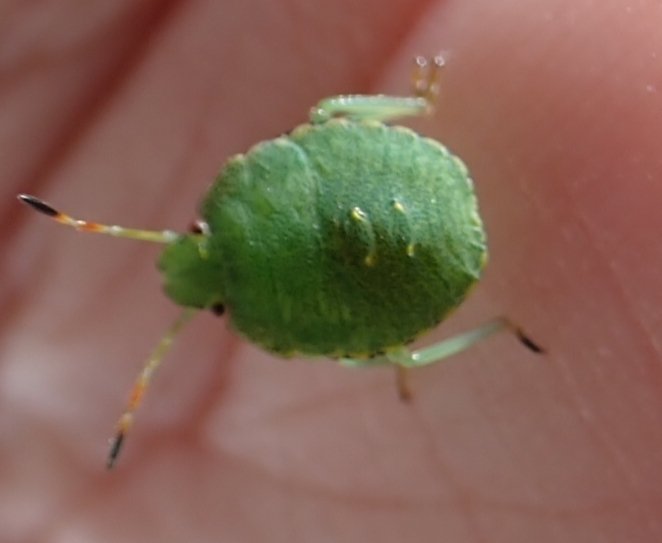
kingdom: Animalia
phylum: Arthropoda
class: Insecta
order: Hemiptera
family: Pentatomidae
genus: Palomena
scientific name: Palomena prasina
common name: Green shieldbug
